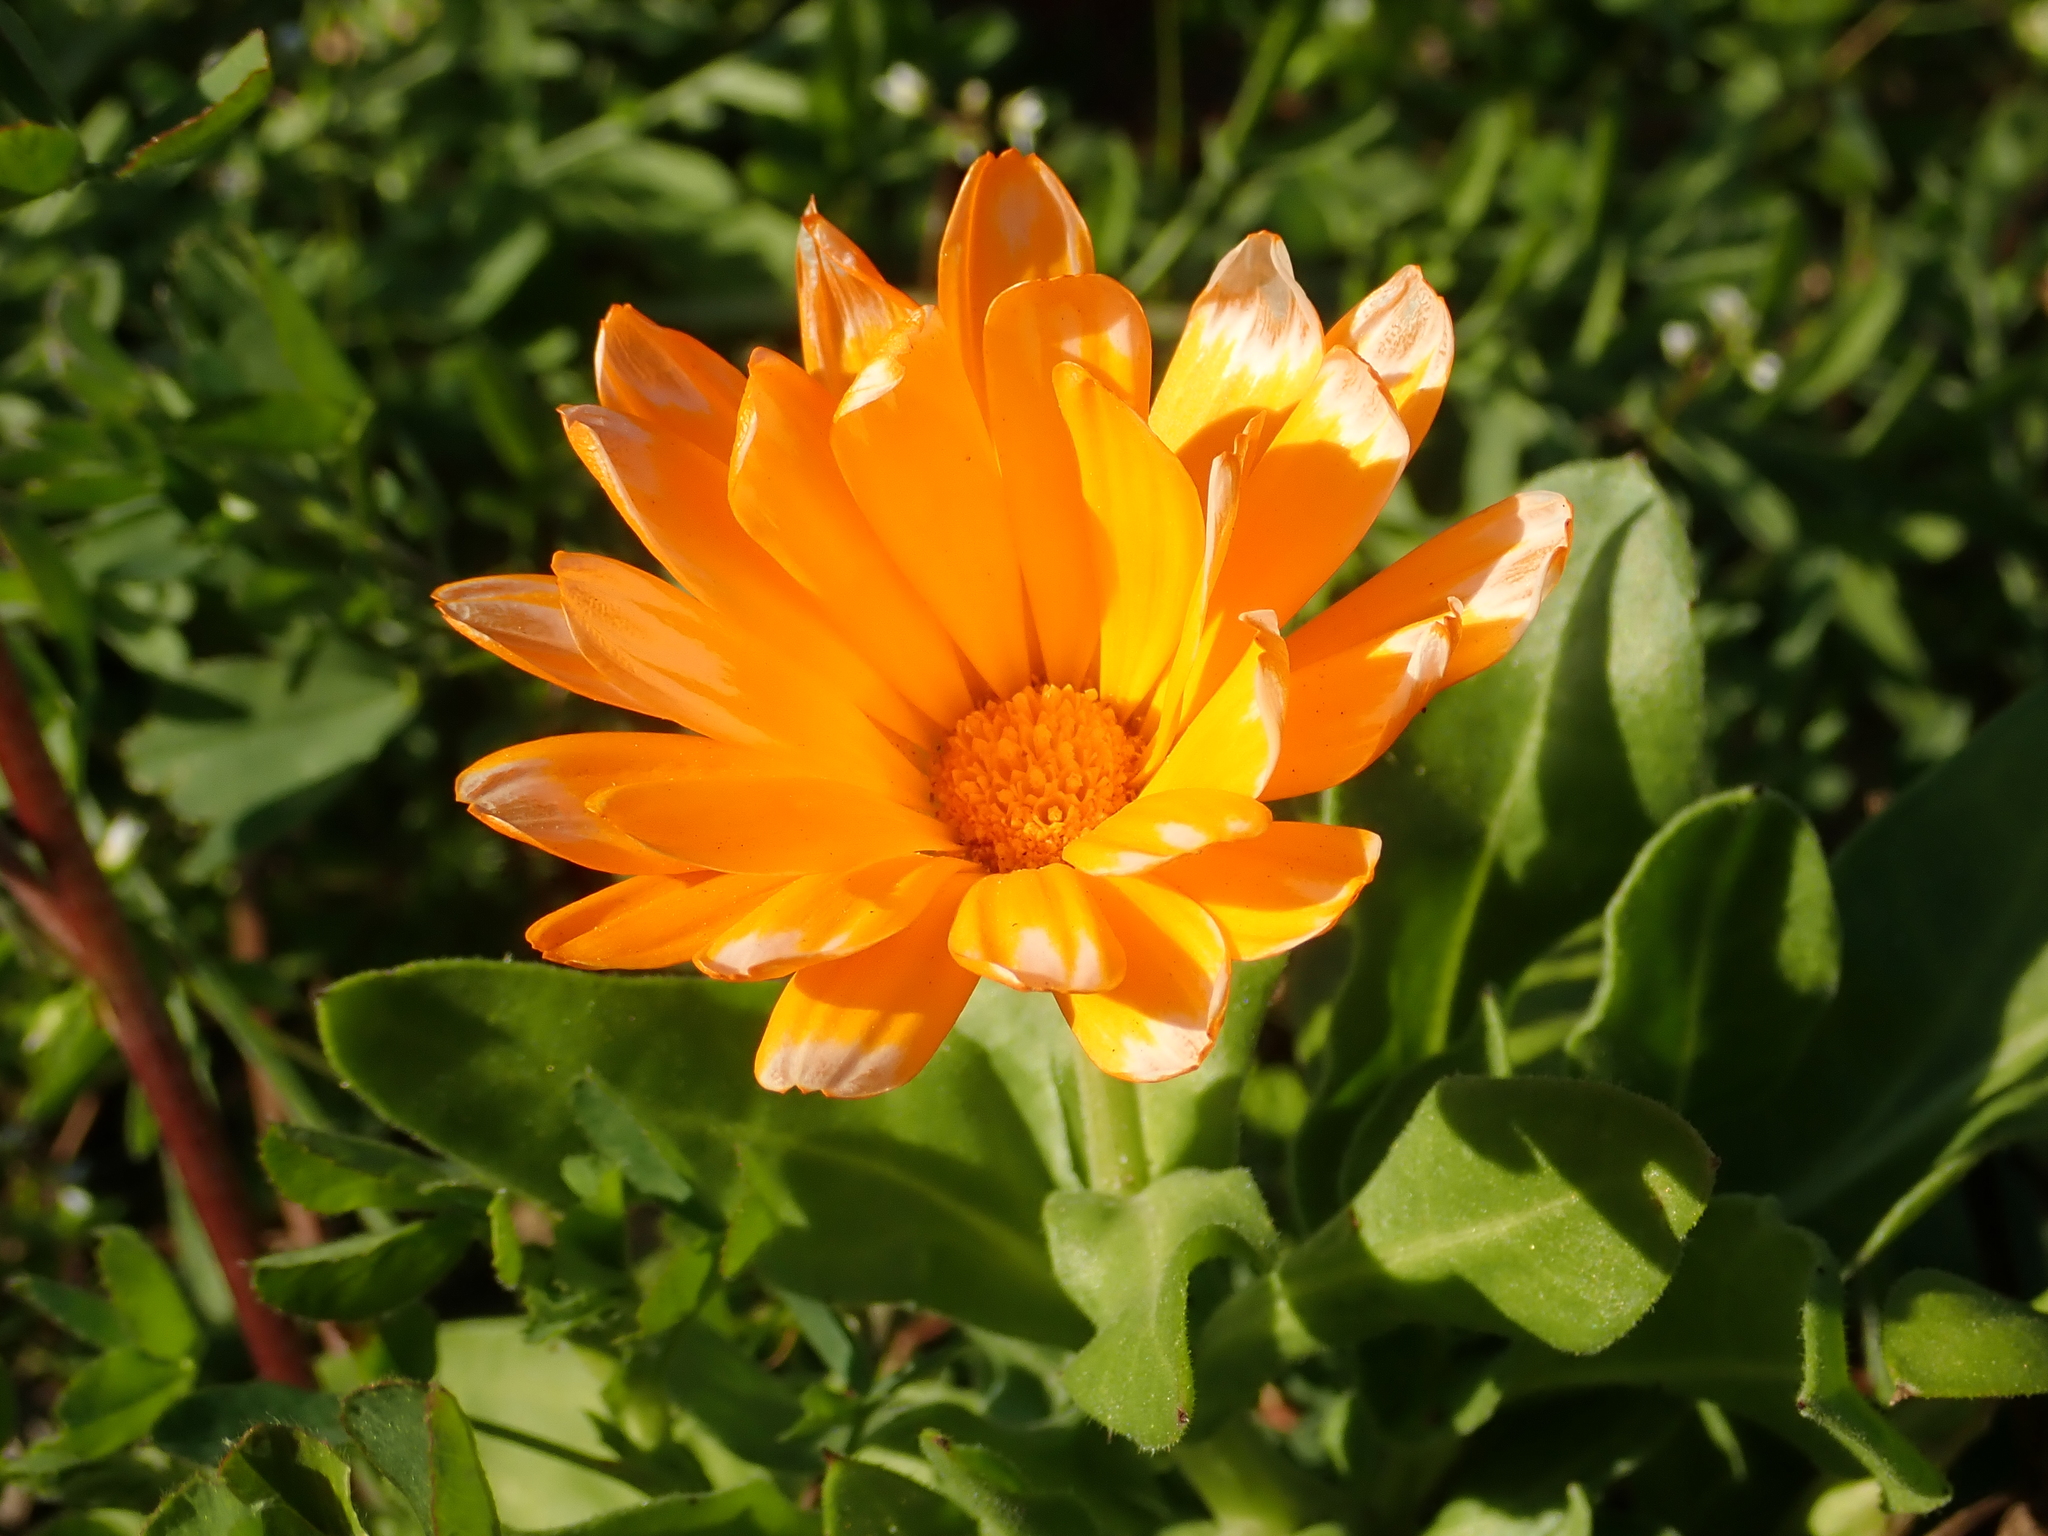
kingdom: Plantae
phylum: Tracheophyta
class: Magnoliopsida
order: Asterales
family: Asteraceae
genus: Calendula
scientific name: Calendula officinalis
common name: Pot marigold
